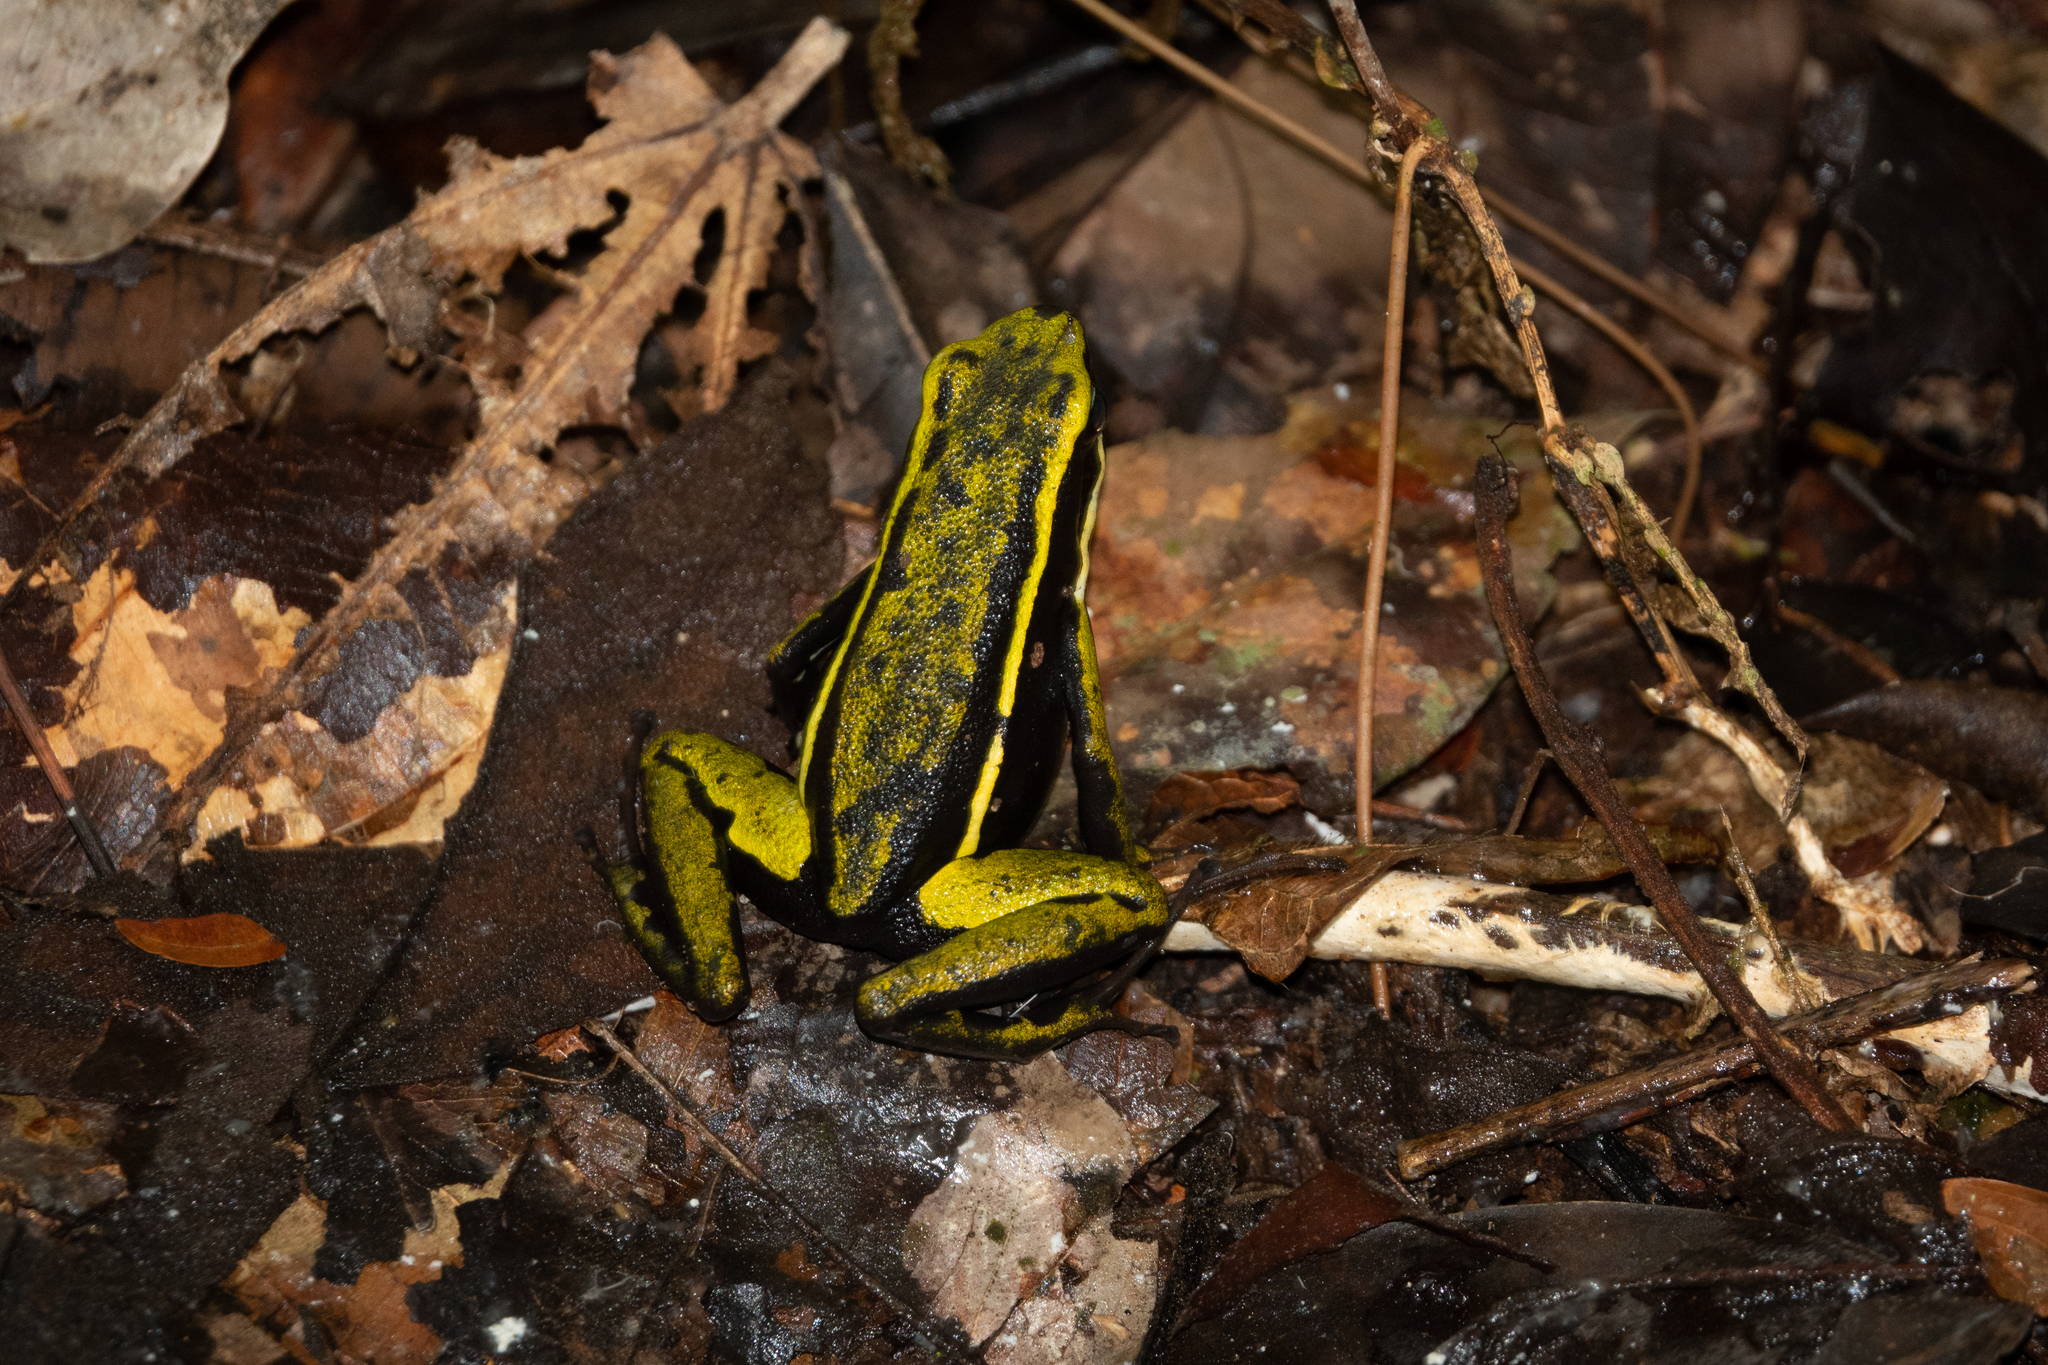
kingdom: Animalia
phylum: Chordata
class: Amphibia
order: Anura
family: Dendrobatidae
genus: Ameerega
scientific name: Ameerega trivittata
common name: Three-striped arrow-poison frog
